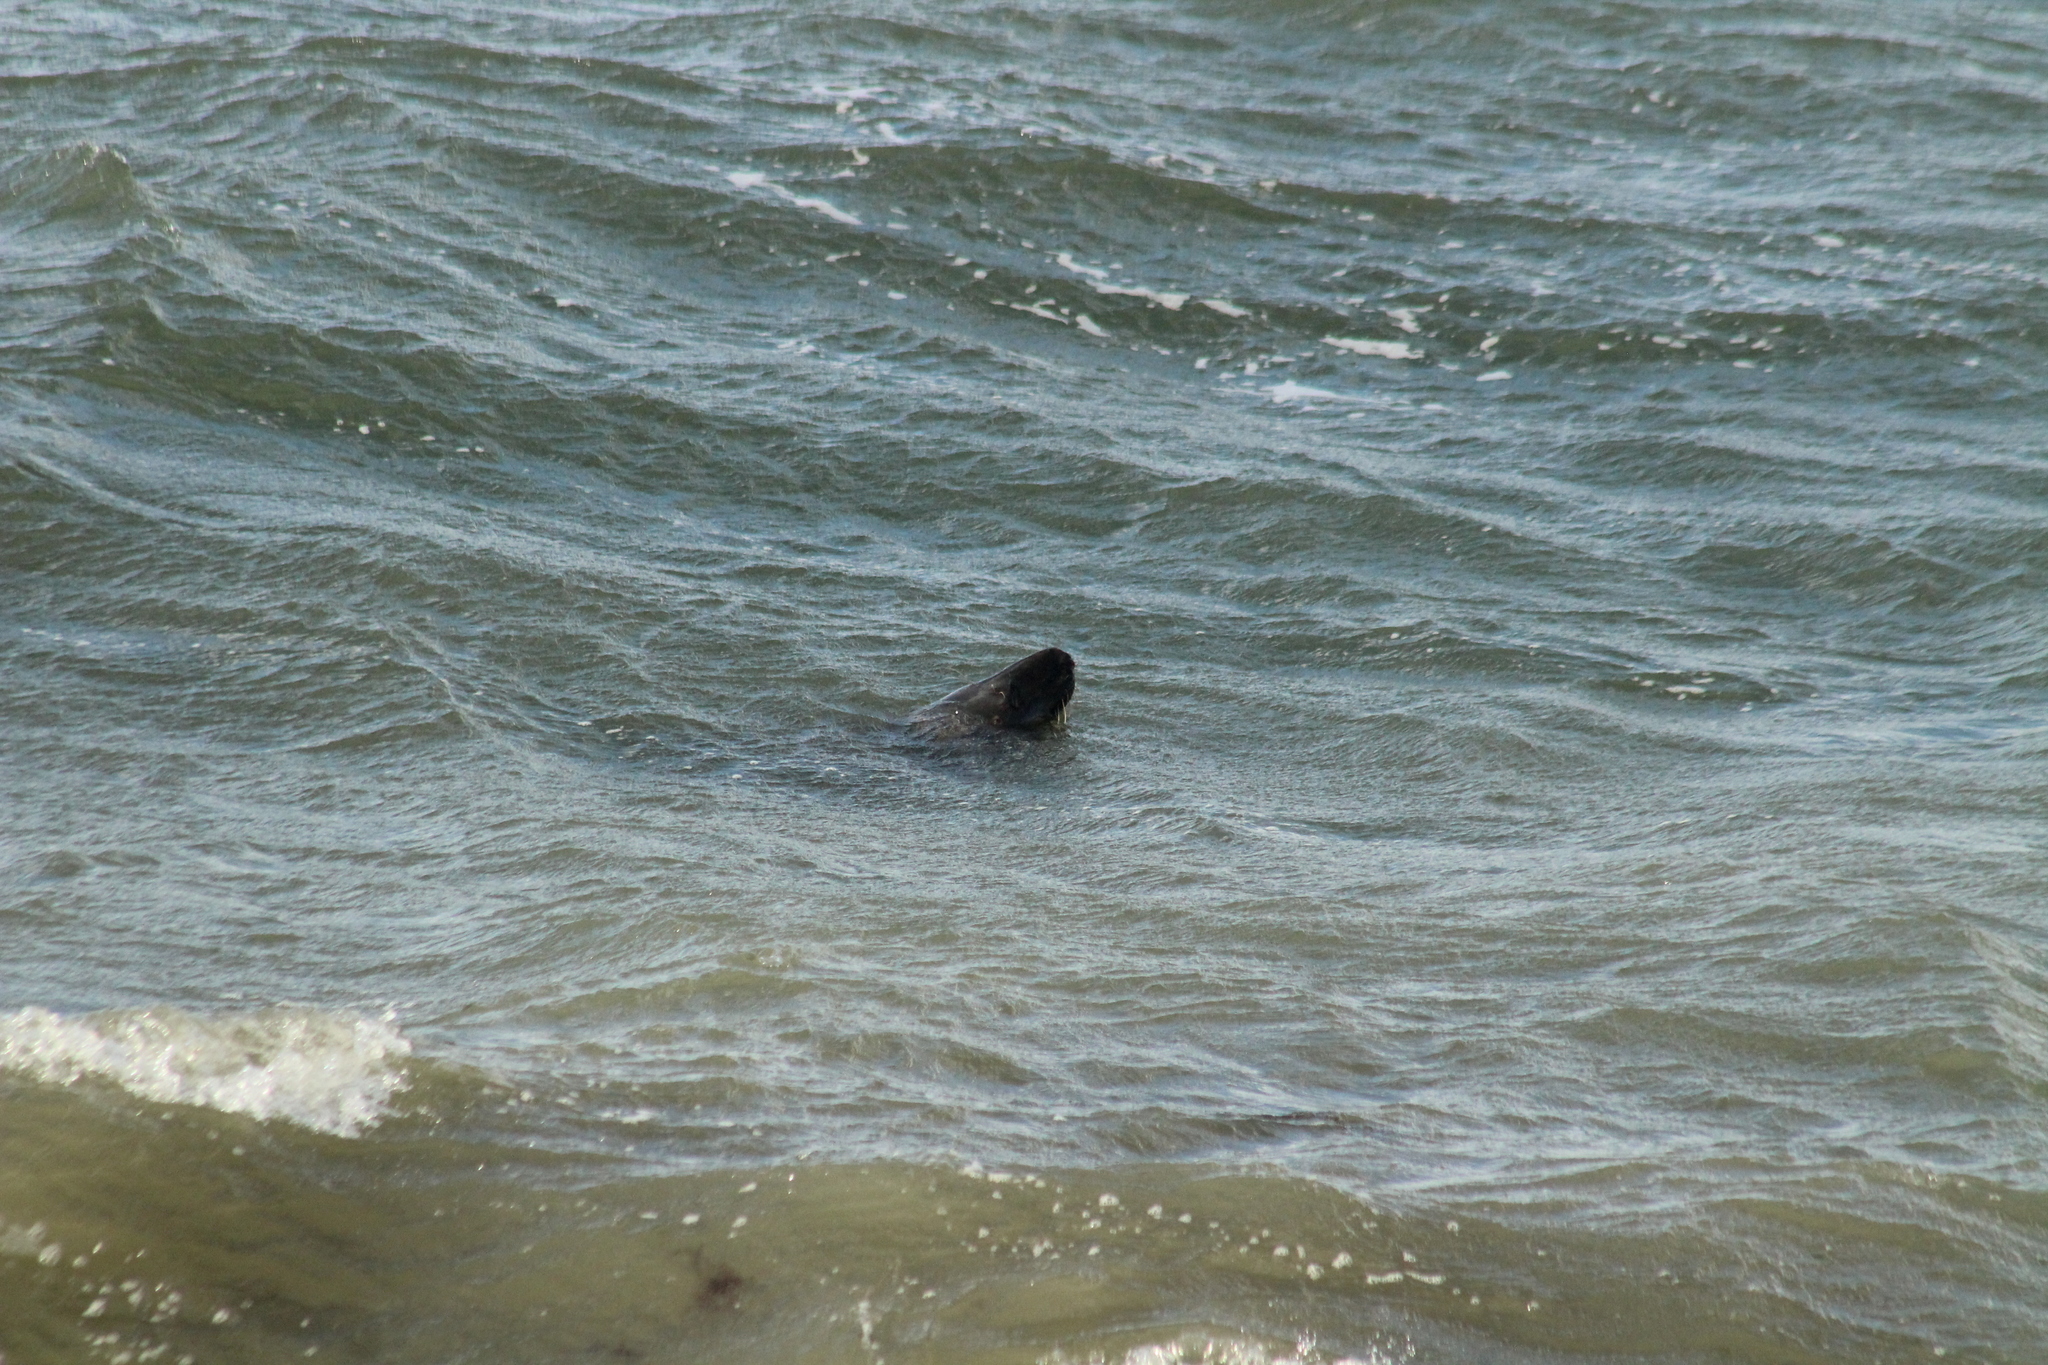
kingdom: Animalia
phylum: Chordata
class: Mammalia
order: Carnivora
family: Phocidae
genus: Halichoerus
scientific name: Halichoerus grypus
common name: Grey seal
